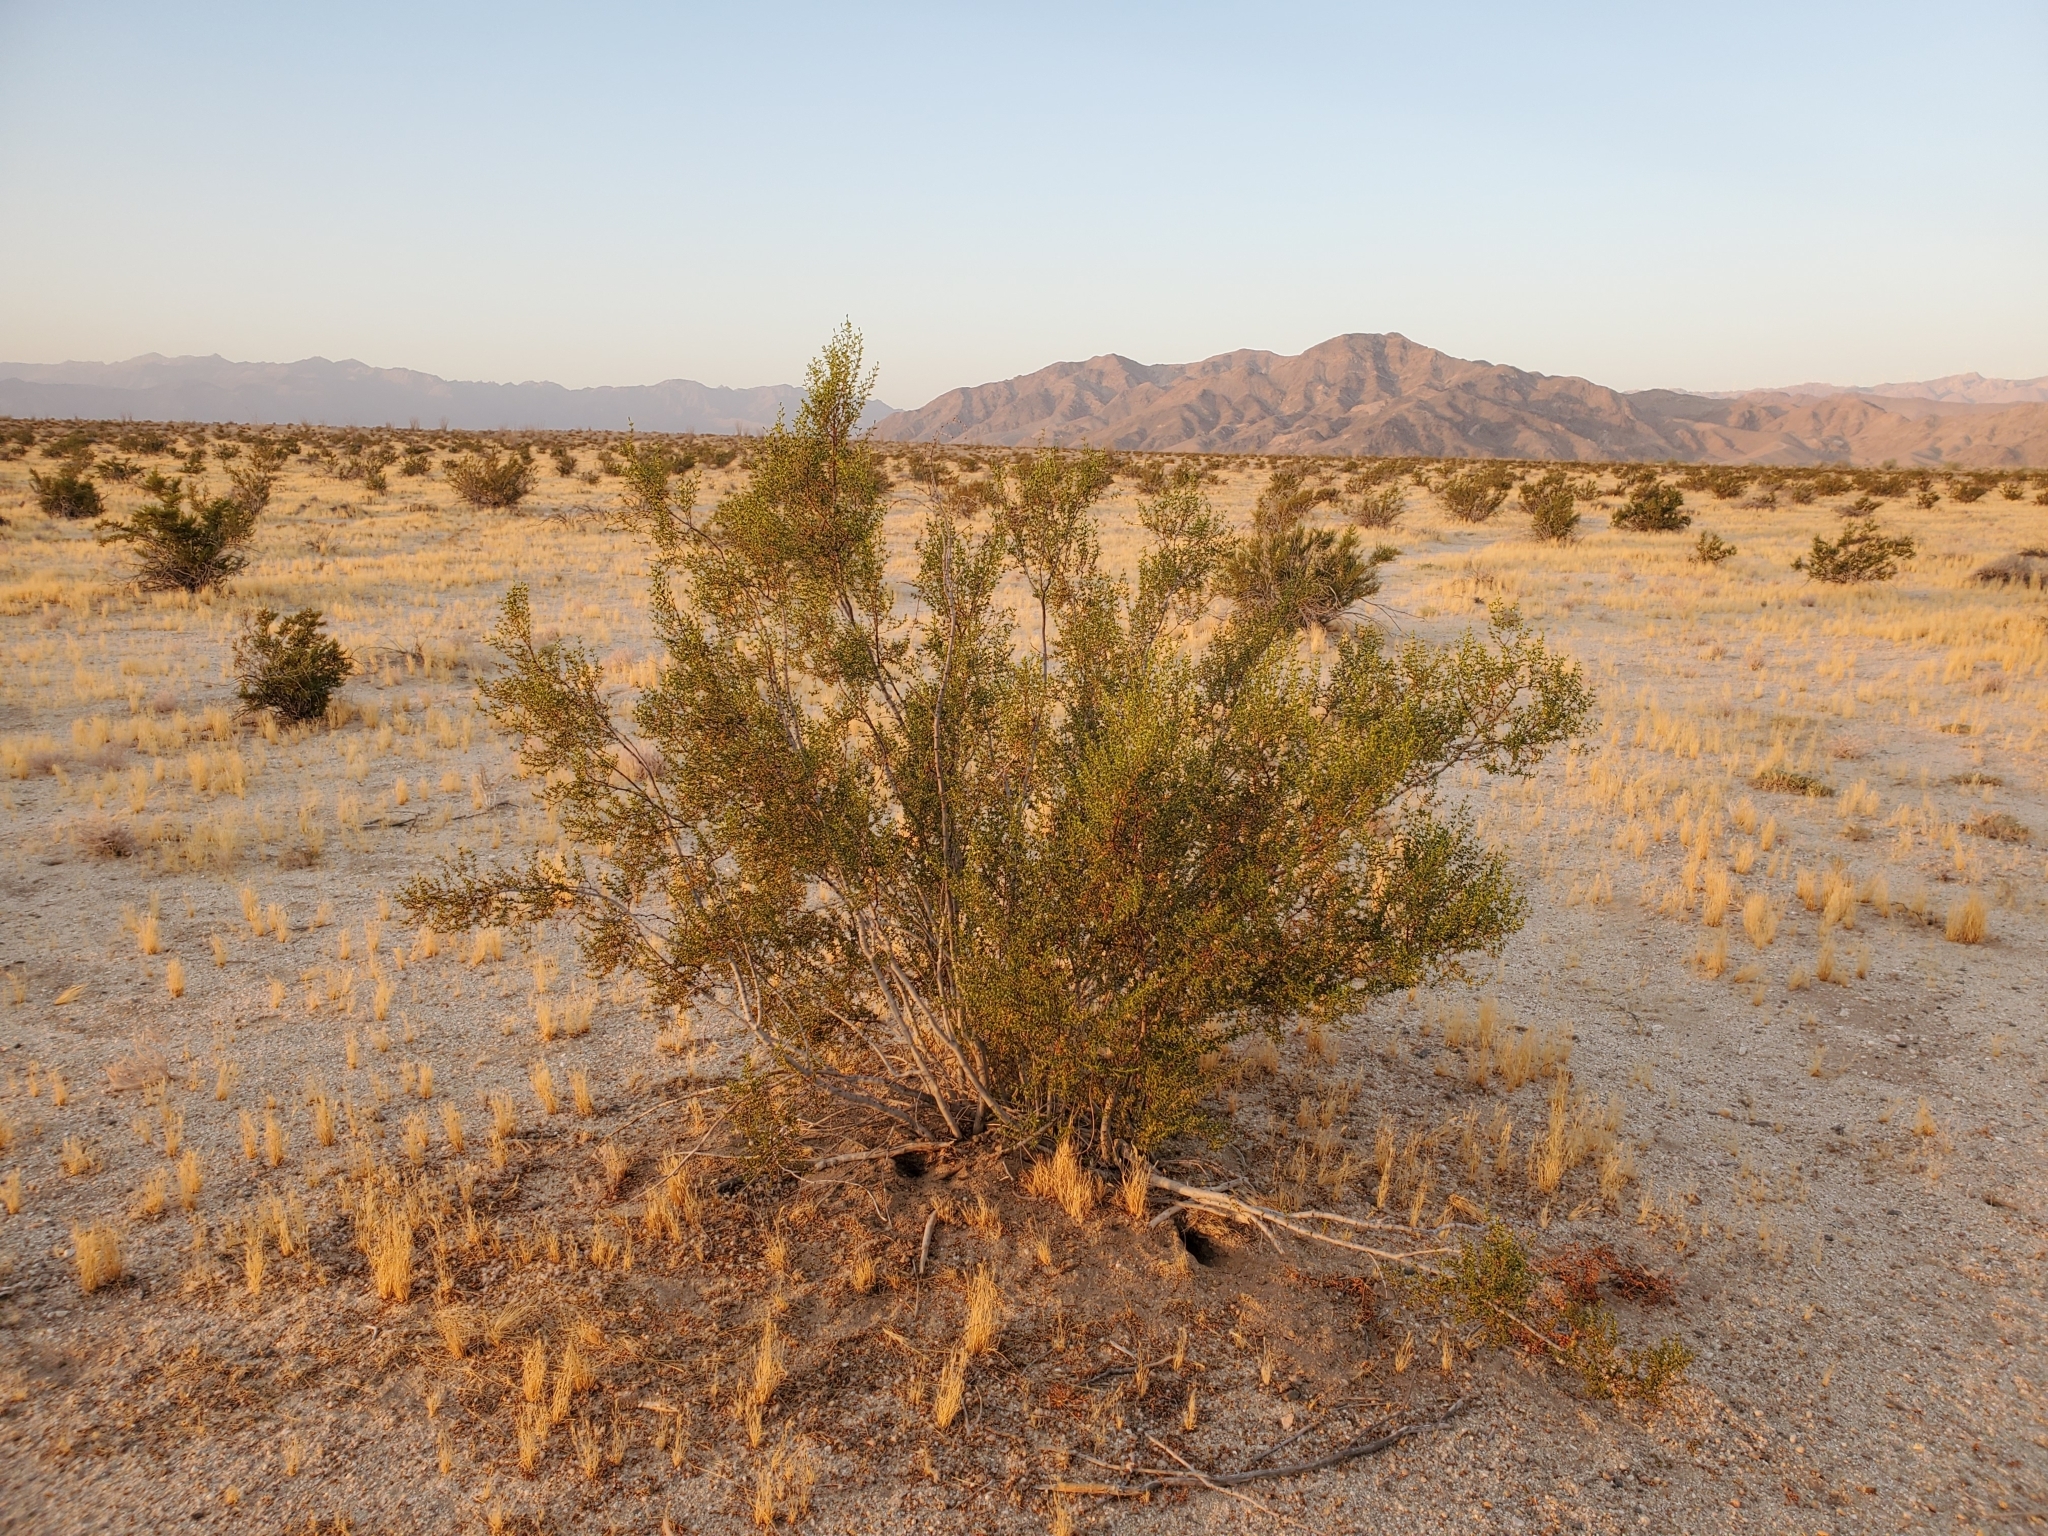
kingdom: Plantae
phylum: Tracheophyta
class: Magnoliopsida
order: Zygophyllales
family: Zygophyllaceae
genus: Larrea
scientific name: Larrea tridentata
